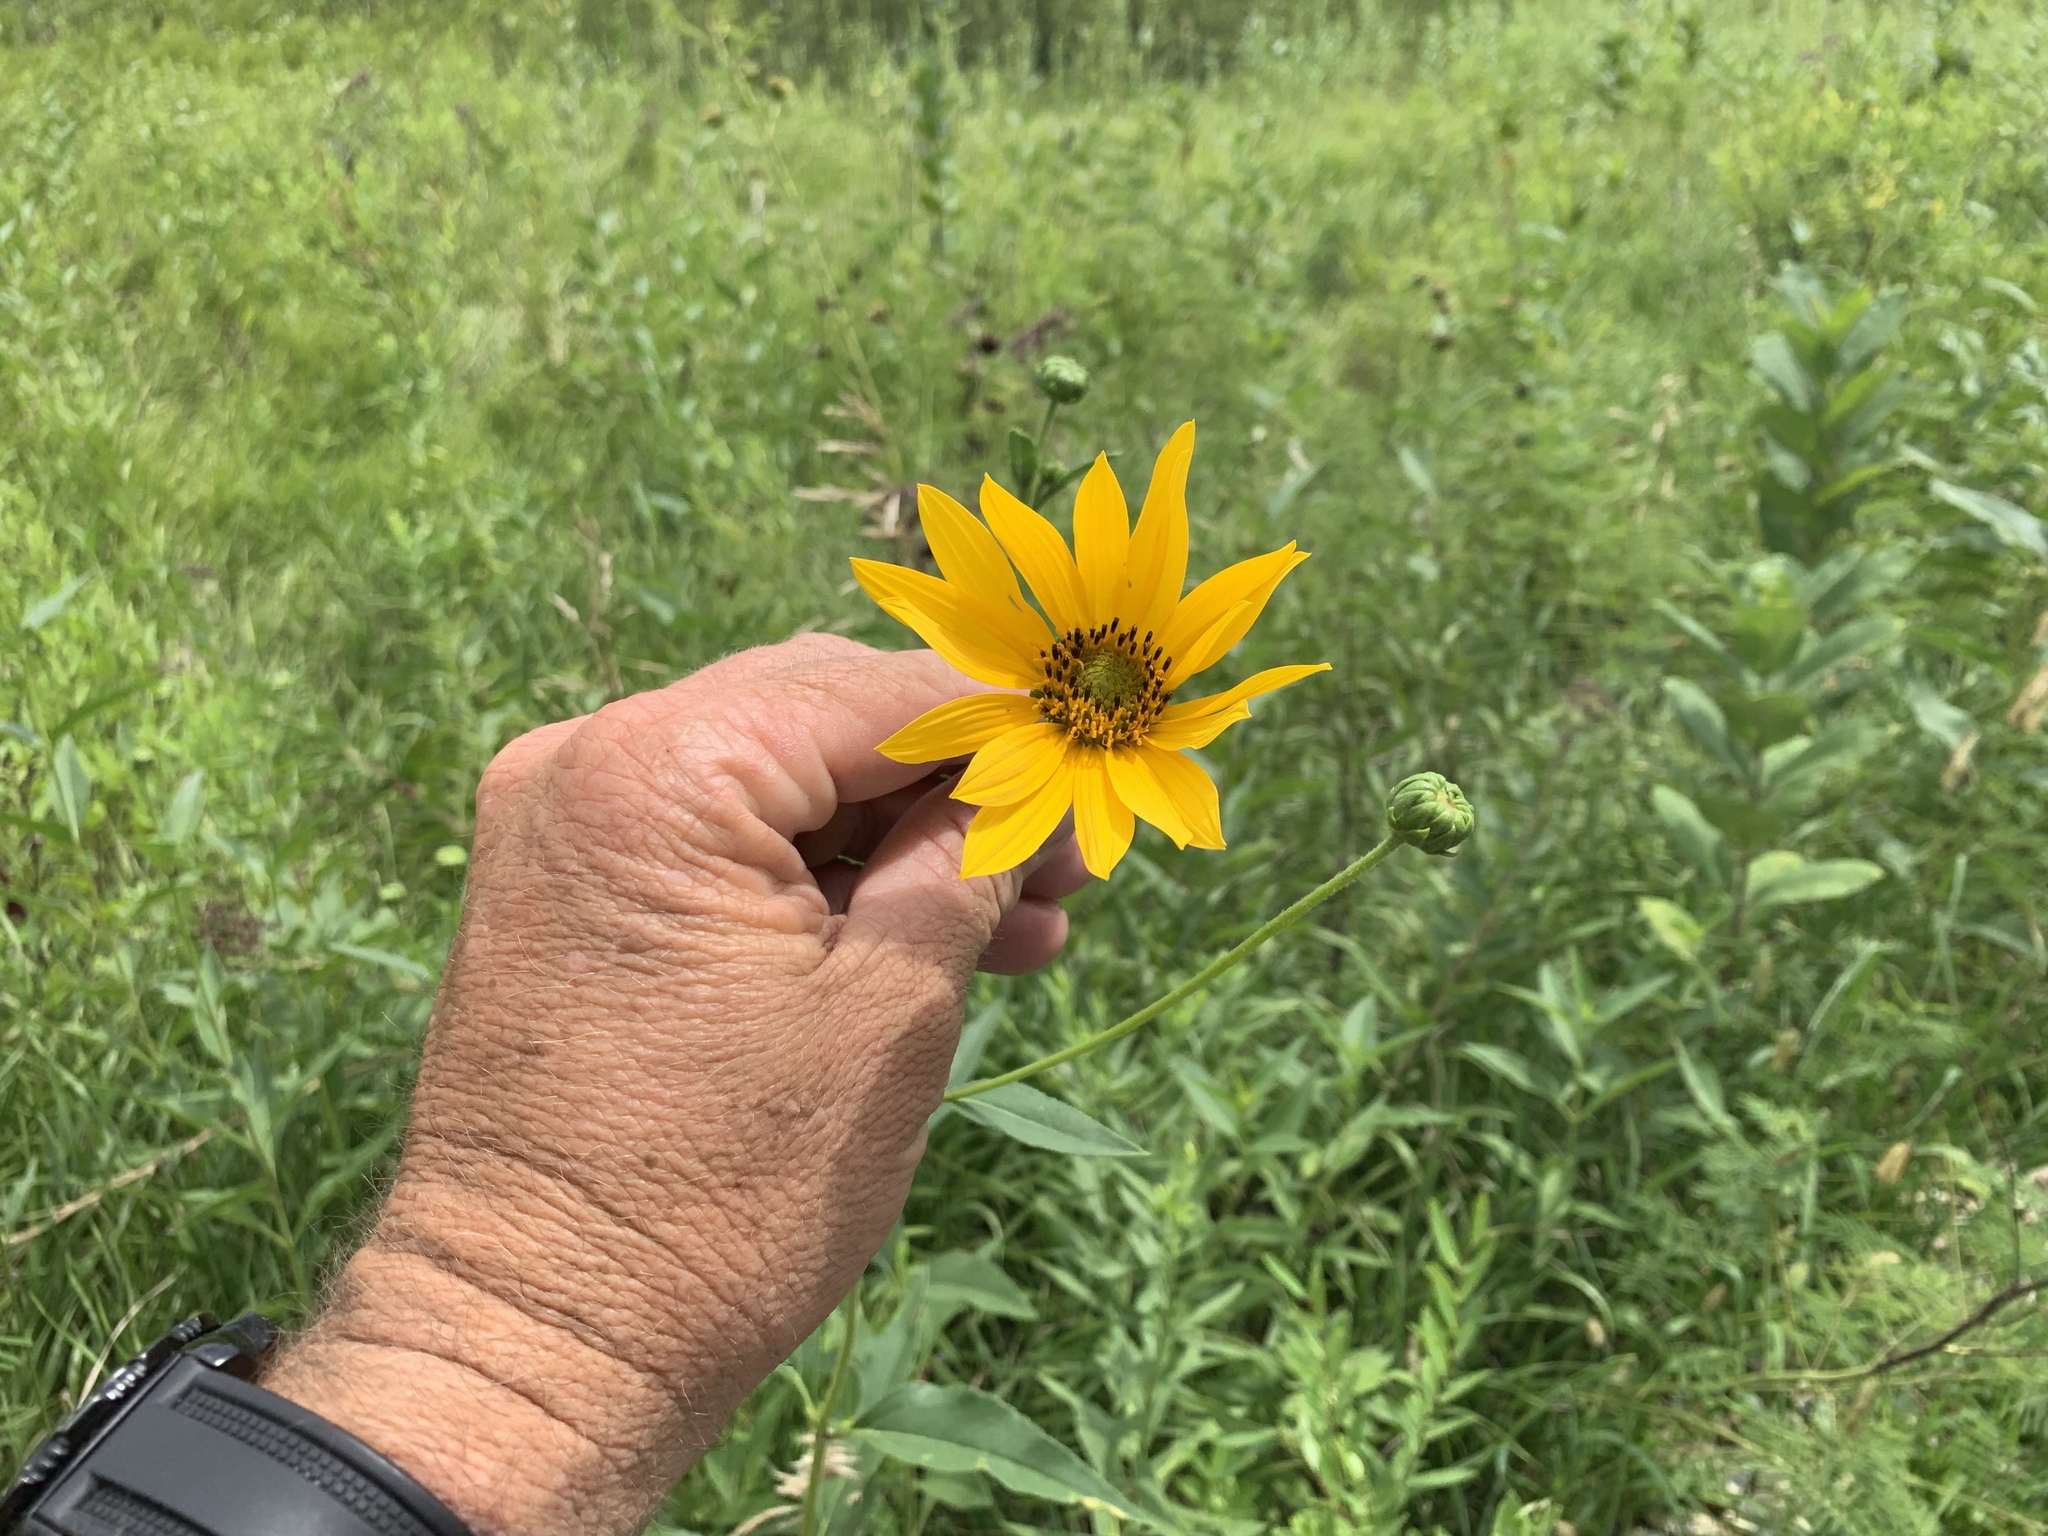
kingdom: Plantae
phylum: Tracheophyta
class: Magnoliopsida
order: Asterales
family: Asteraceae
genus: Helianthus
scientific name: Helianthus laetiflorus
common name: Perennial sunflower
